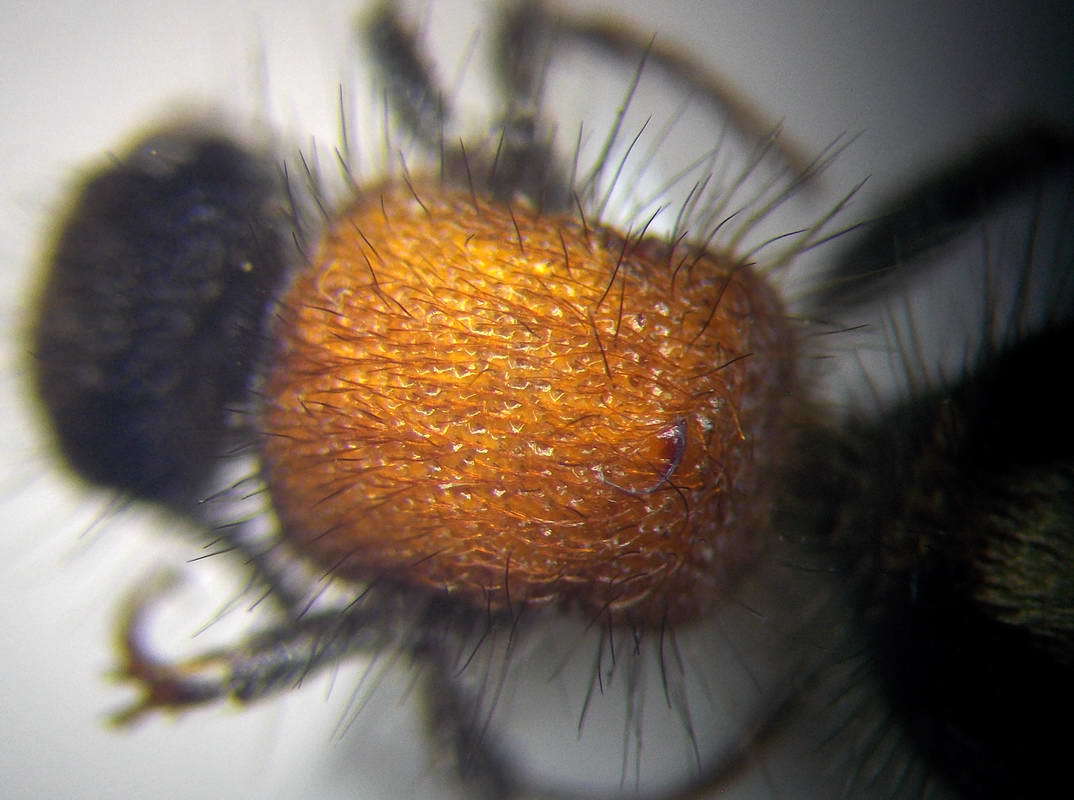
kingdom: Animalia
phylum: Arthropoda
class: Insecta
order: Hymenoptera
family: Mutillidae
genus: Nemka
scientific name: Nemka viduata
